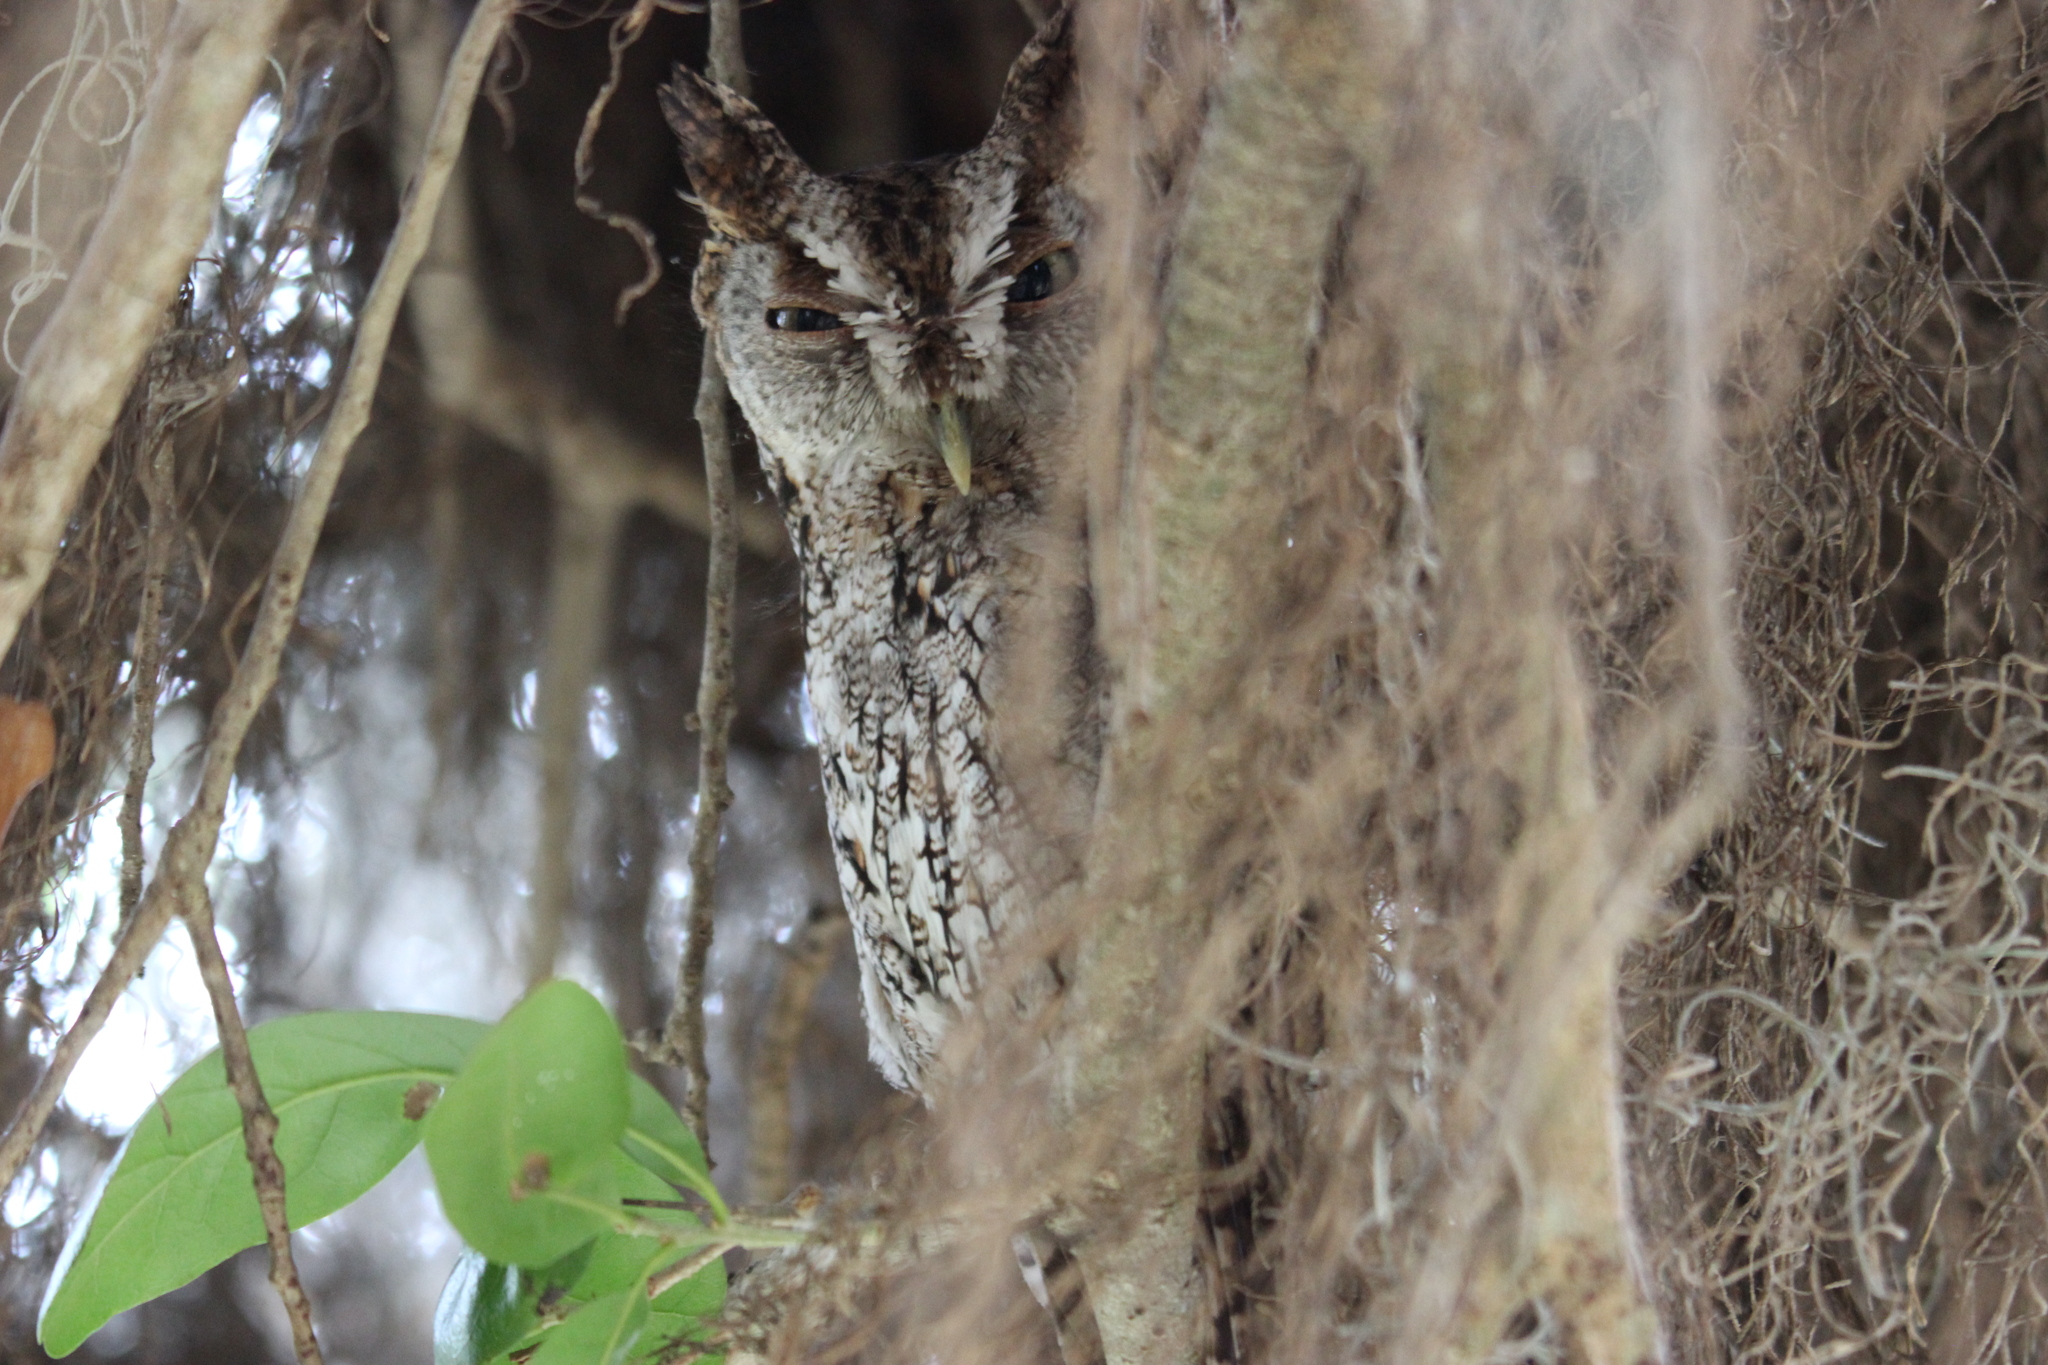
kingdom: Animalia
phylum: Chordata
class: Aves
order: Strigiformes
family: Strigidae
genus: Megascops
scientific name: Megascops asio
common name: Eastern screech-owl
